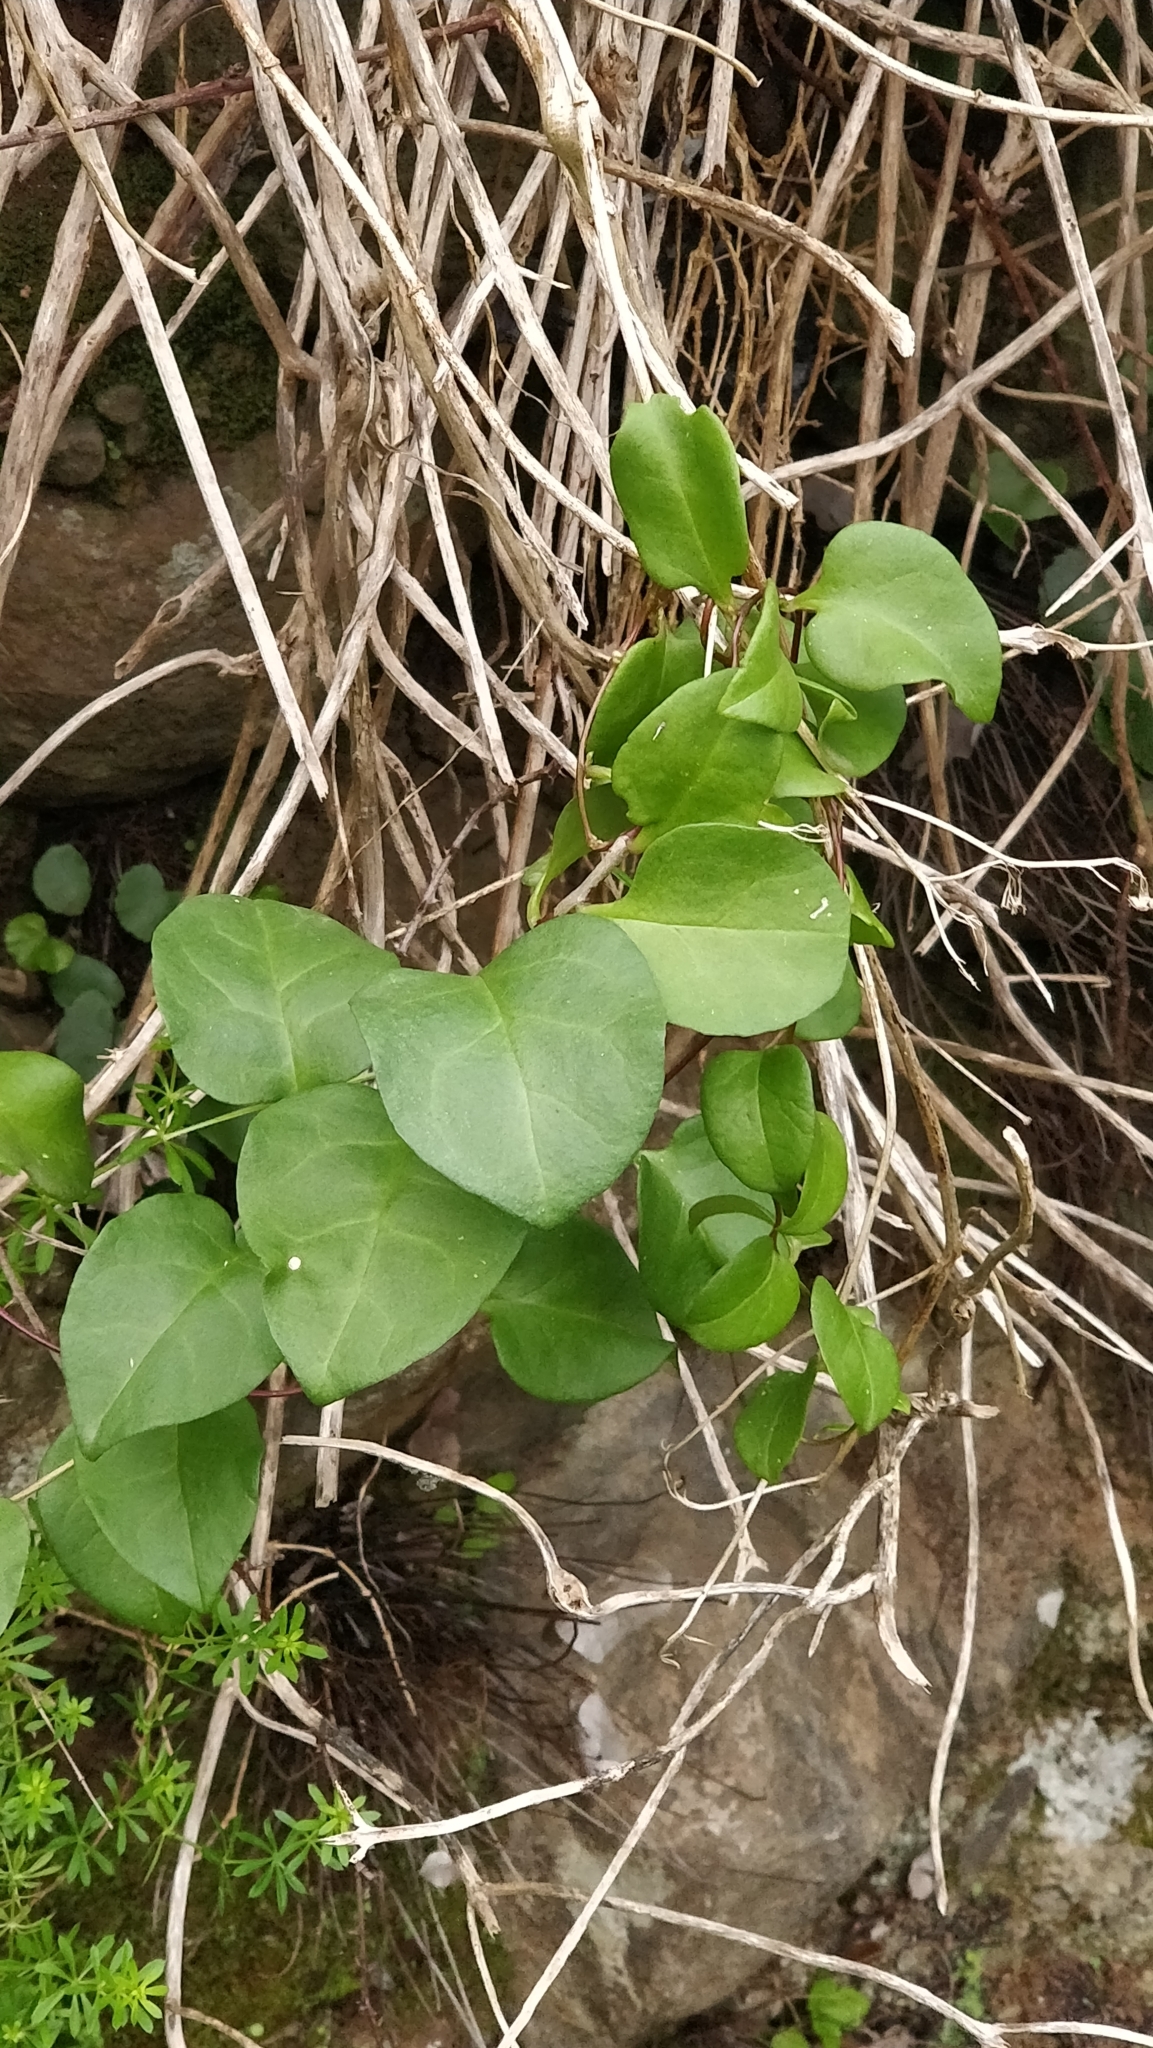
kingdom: Plantae
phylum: Tracheophyta
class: Magnoliopsida
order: Caryophyllales
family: Basellaceae
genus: Anredera
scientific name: Anredera cordifolia
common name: Heartleaf madeiravine
